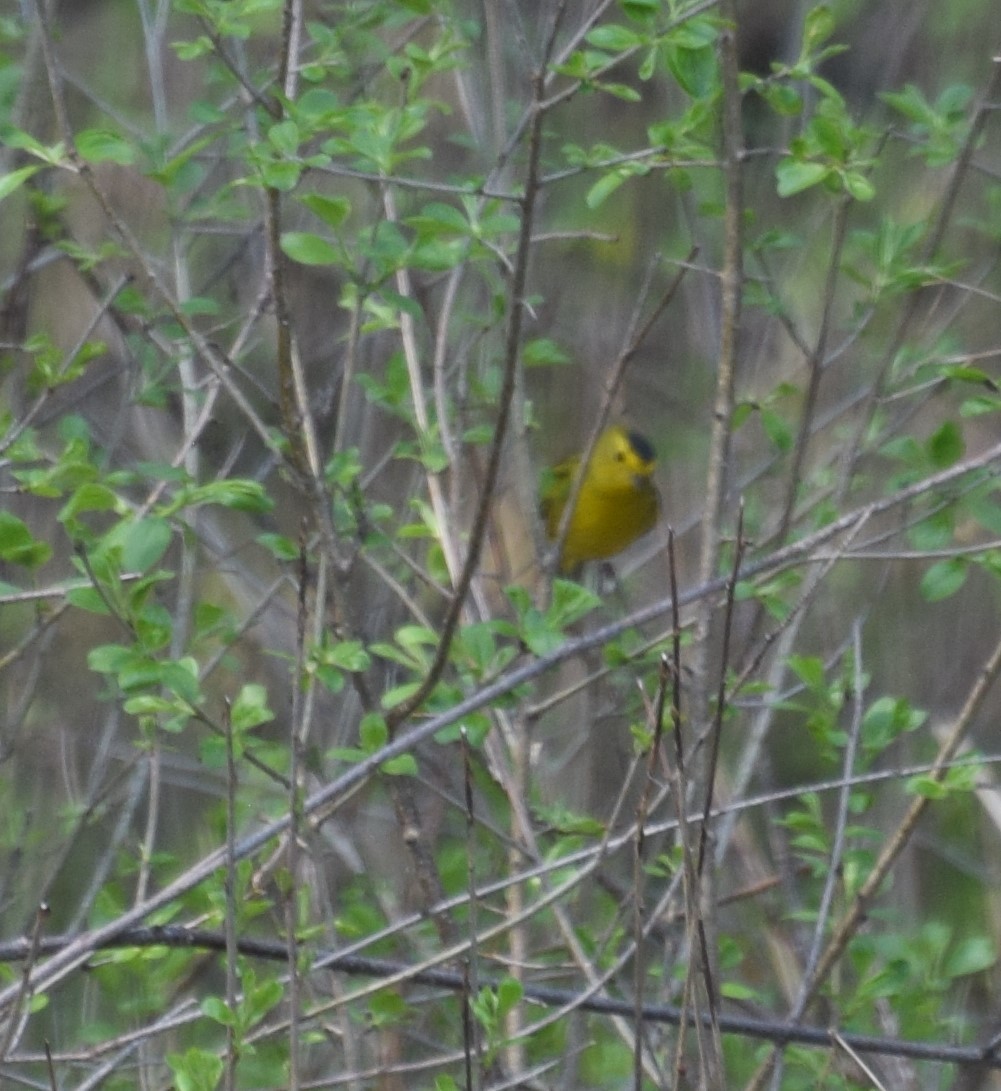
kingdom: Animalia
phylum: Chordata
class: Aves
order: Passeriformes
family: Parulidae
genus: Cardellina
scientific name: Cardellina pusilla
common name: Wilson's warbler
